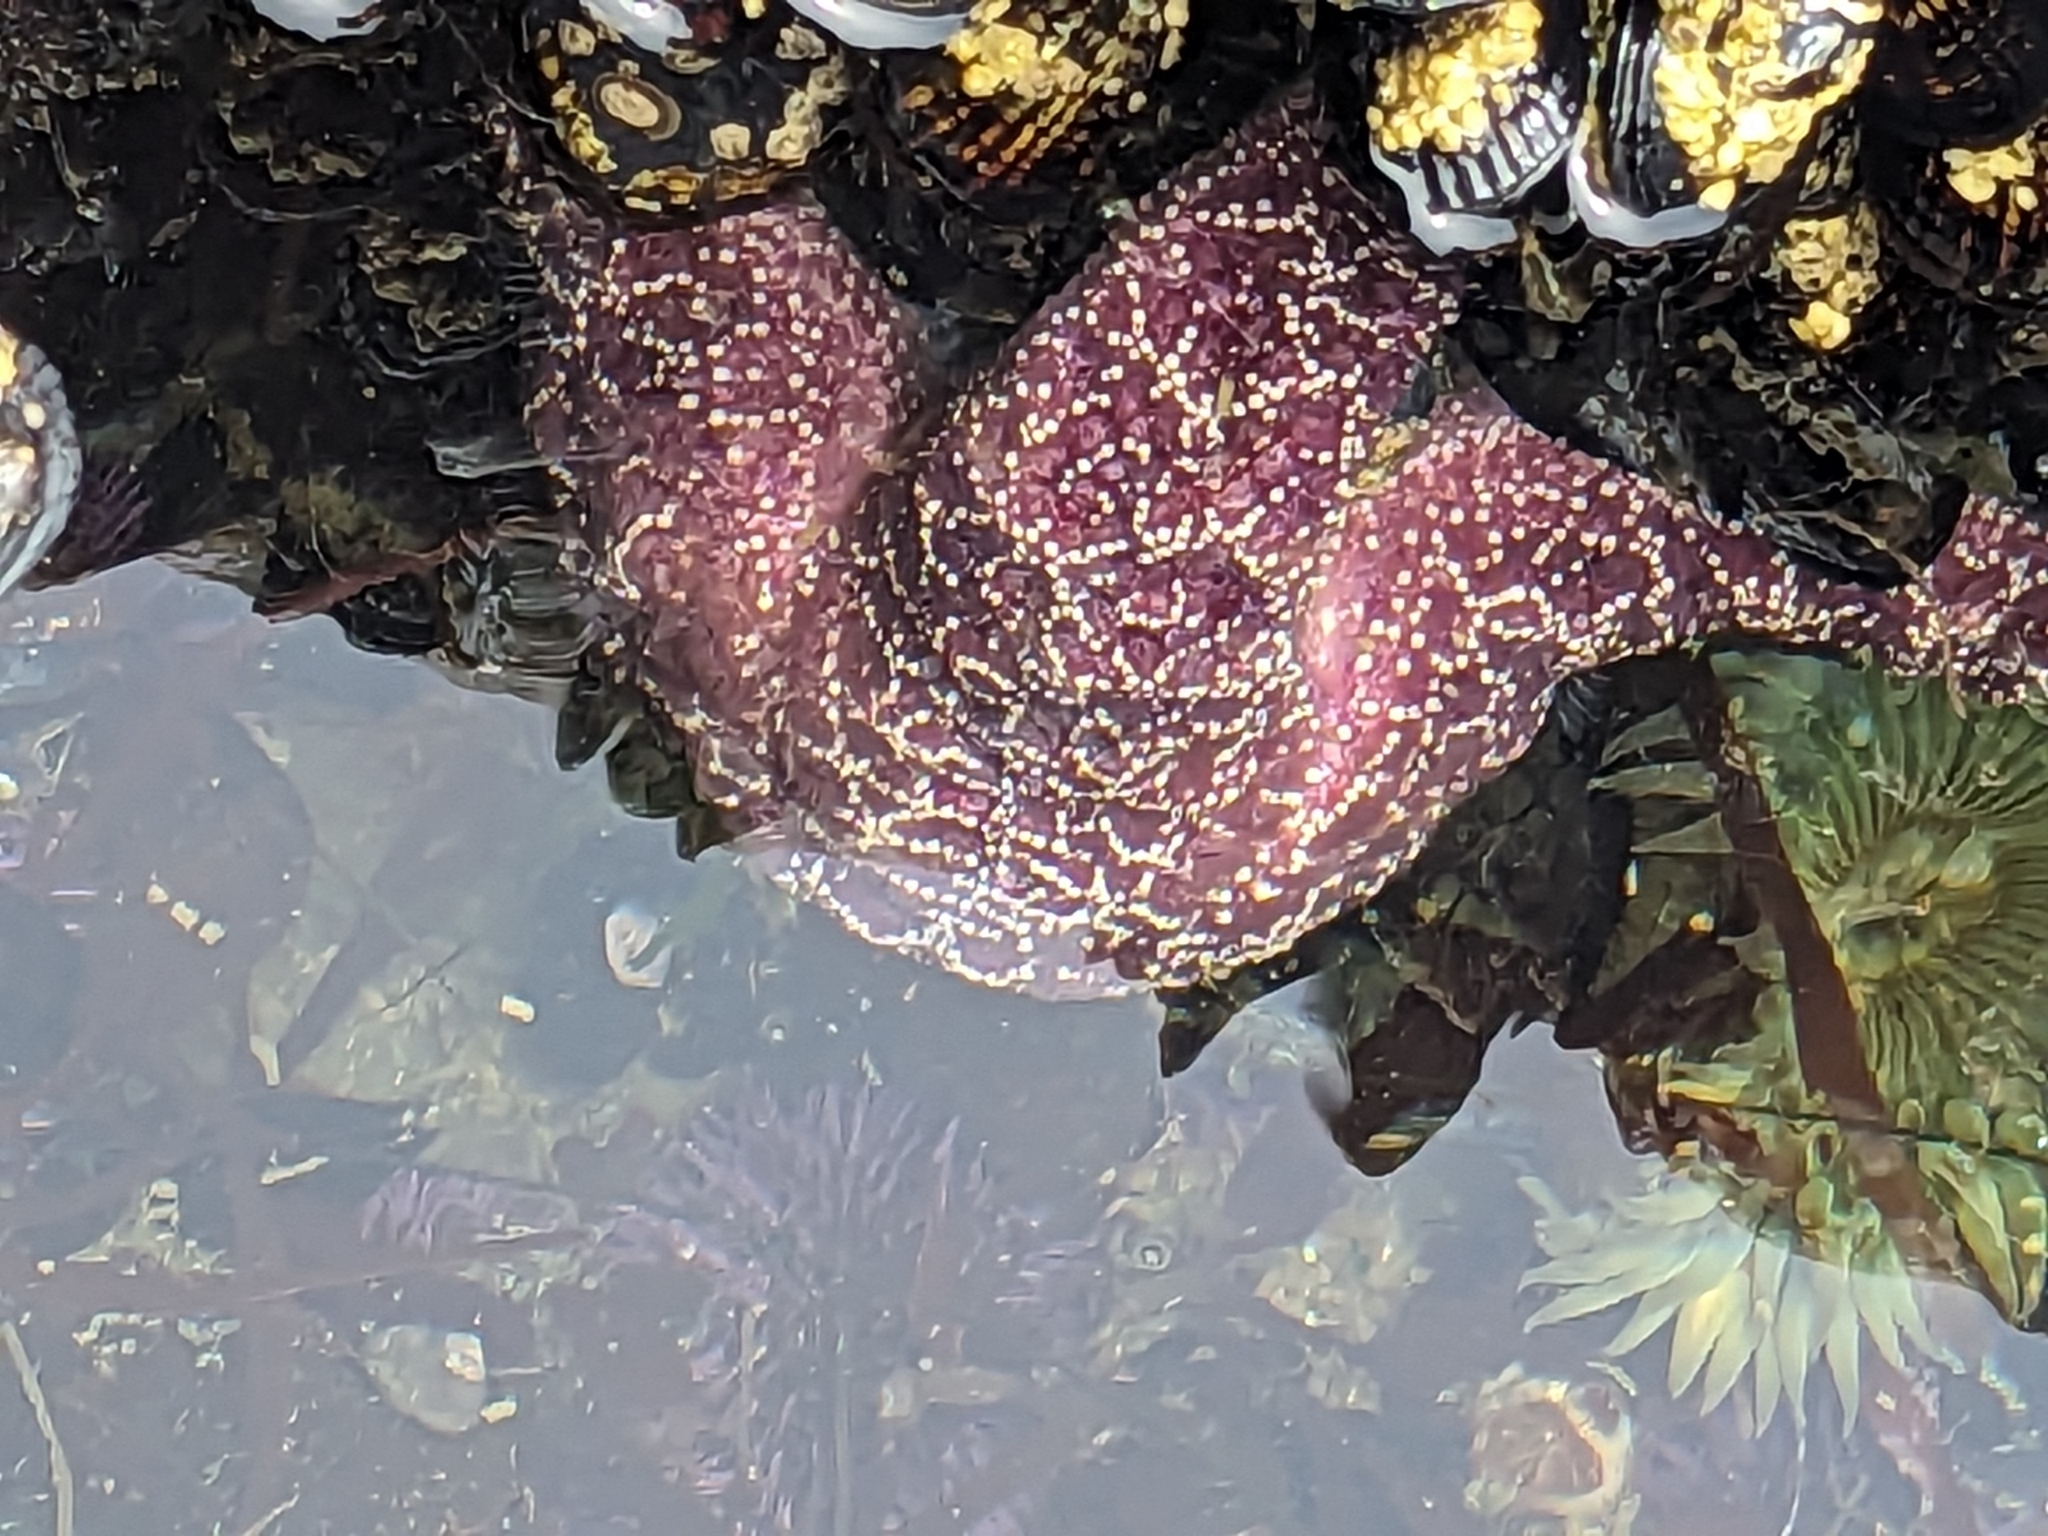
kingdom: Animalia
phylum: Echinodermata
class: Asteroidea
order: Forcipulatida
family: Asteriidae
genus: Pisaster
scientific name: Pisaster ochraceus
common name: Ochre stars
